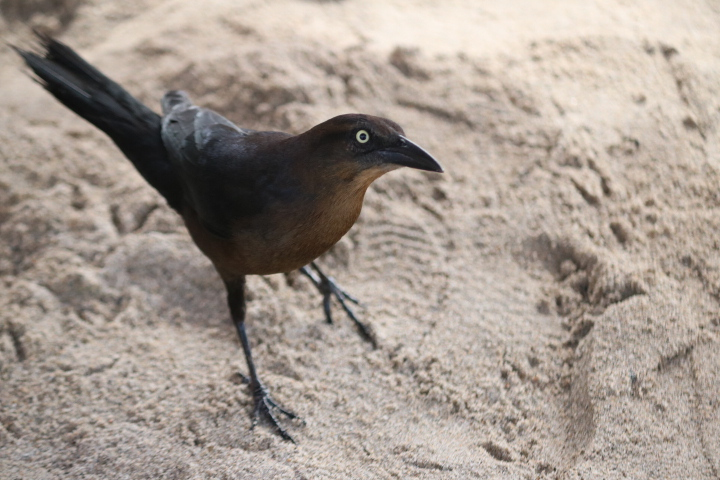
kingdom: Animalia
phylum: Chordata
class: Aves
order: Passeriformes
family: Icteridae
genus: Quiscalus
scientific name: Quiscalus mexicanus
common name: Great-tailed grackle
